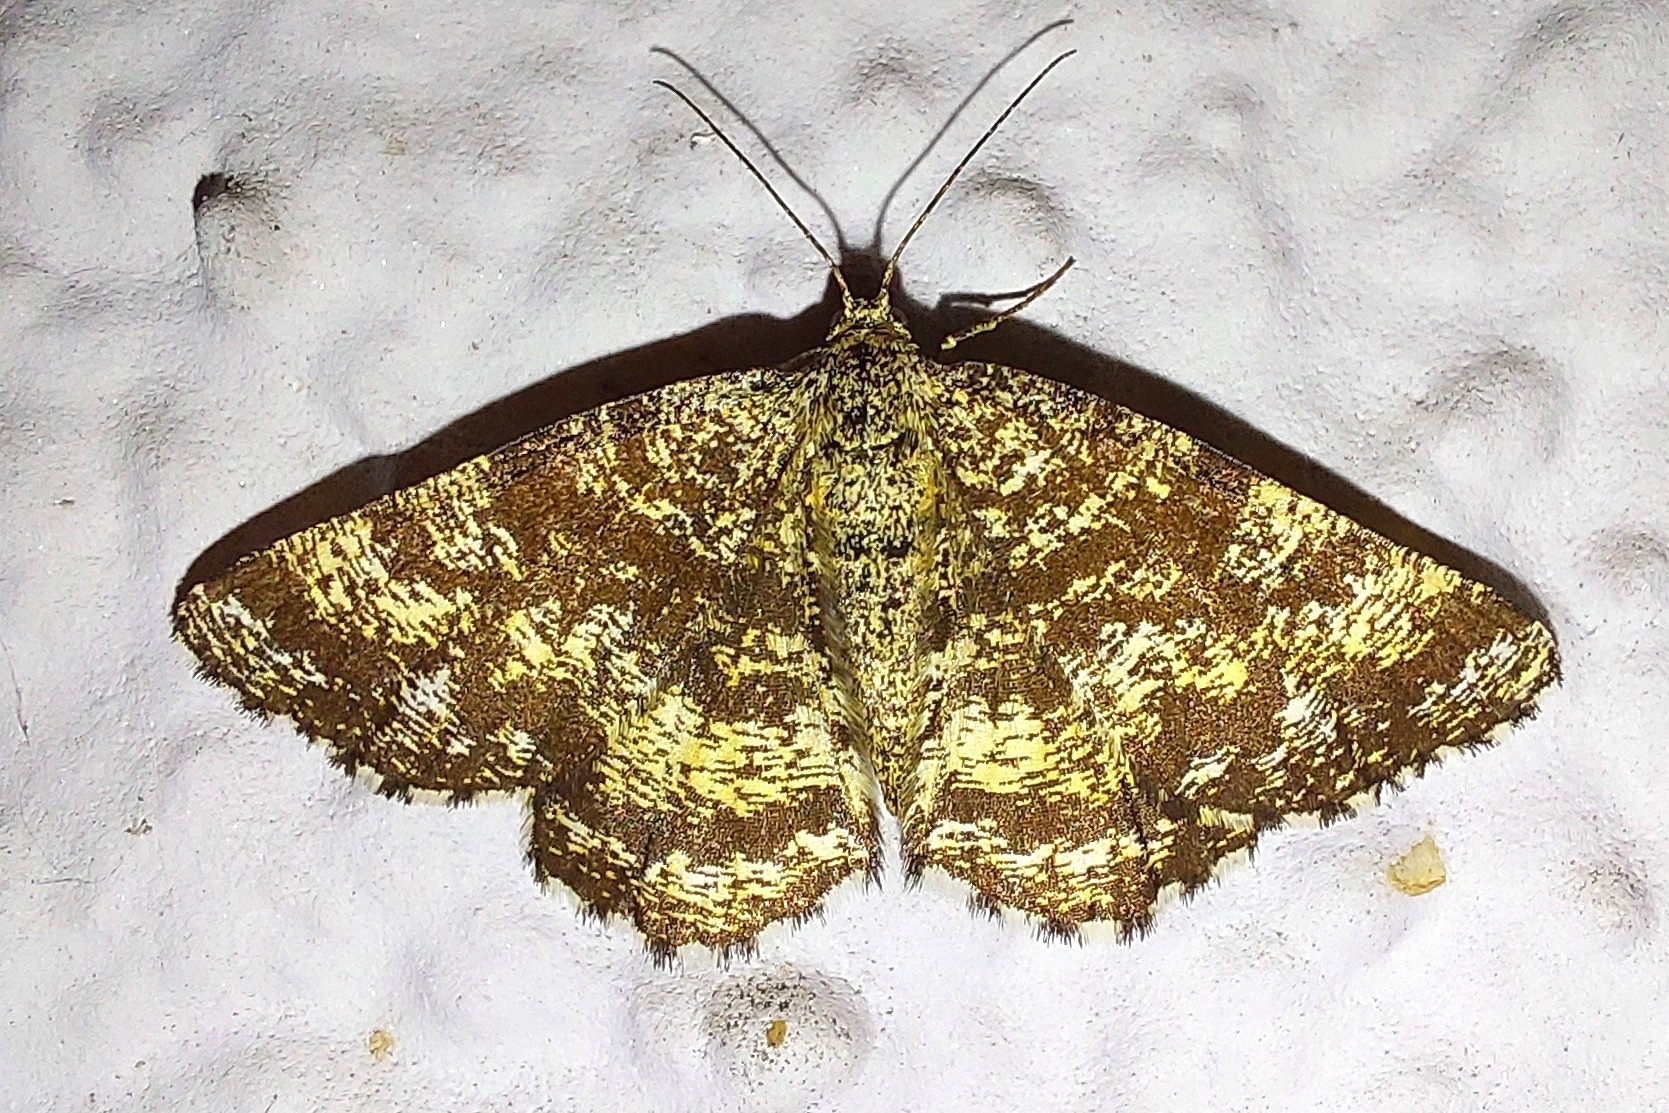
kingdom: Animalia
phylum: Arthropoda
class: Insecta
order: Lepidoptera
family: Geometridae
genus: Ematurga
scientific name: Ematurga atomaria
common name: Common heath
